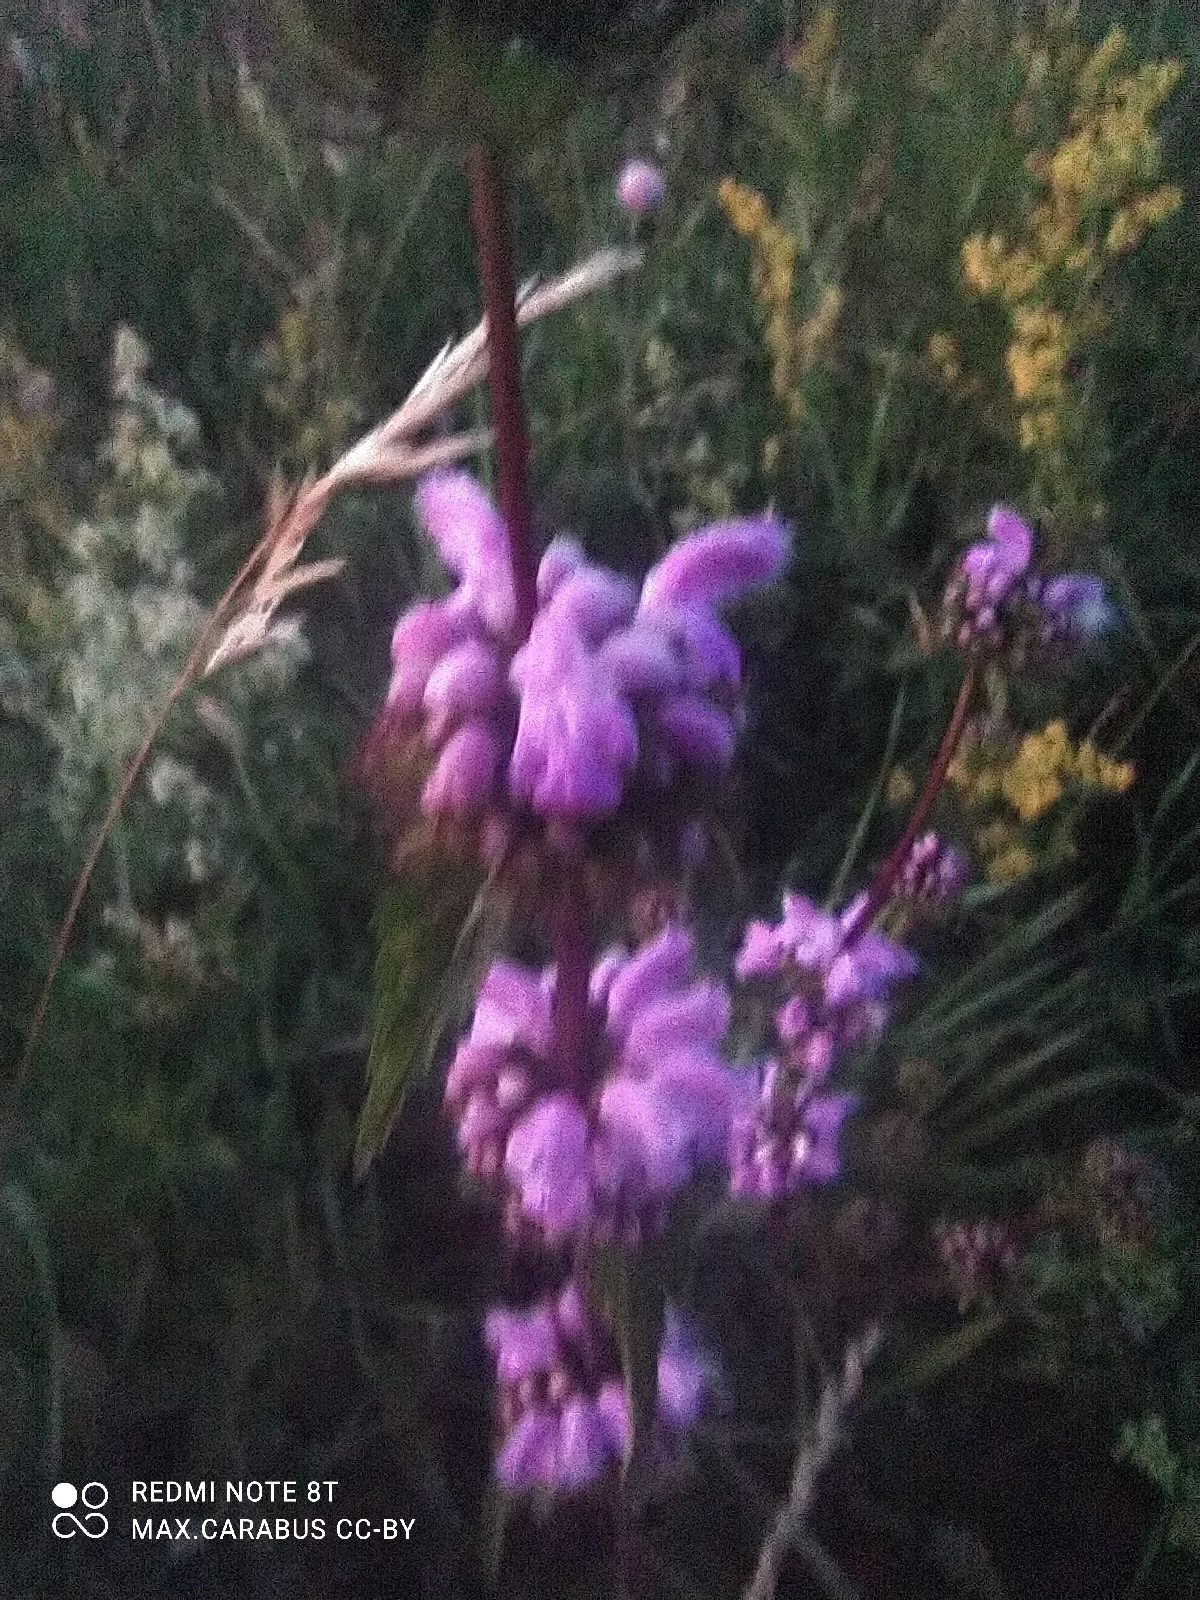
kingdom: Plantae
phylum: Tracheophyta
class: Magnoliopsida
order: Lamiales
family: Lamiaceae
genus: Phlomoides
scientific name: Phlomoides tuberosa
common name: Tuberous jerusalem sage
